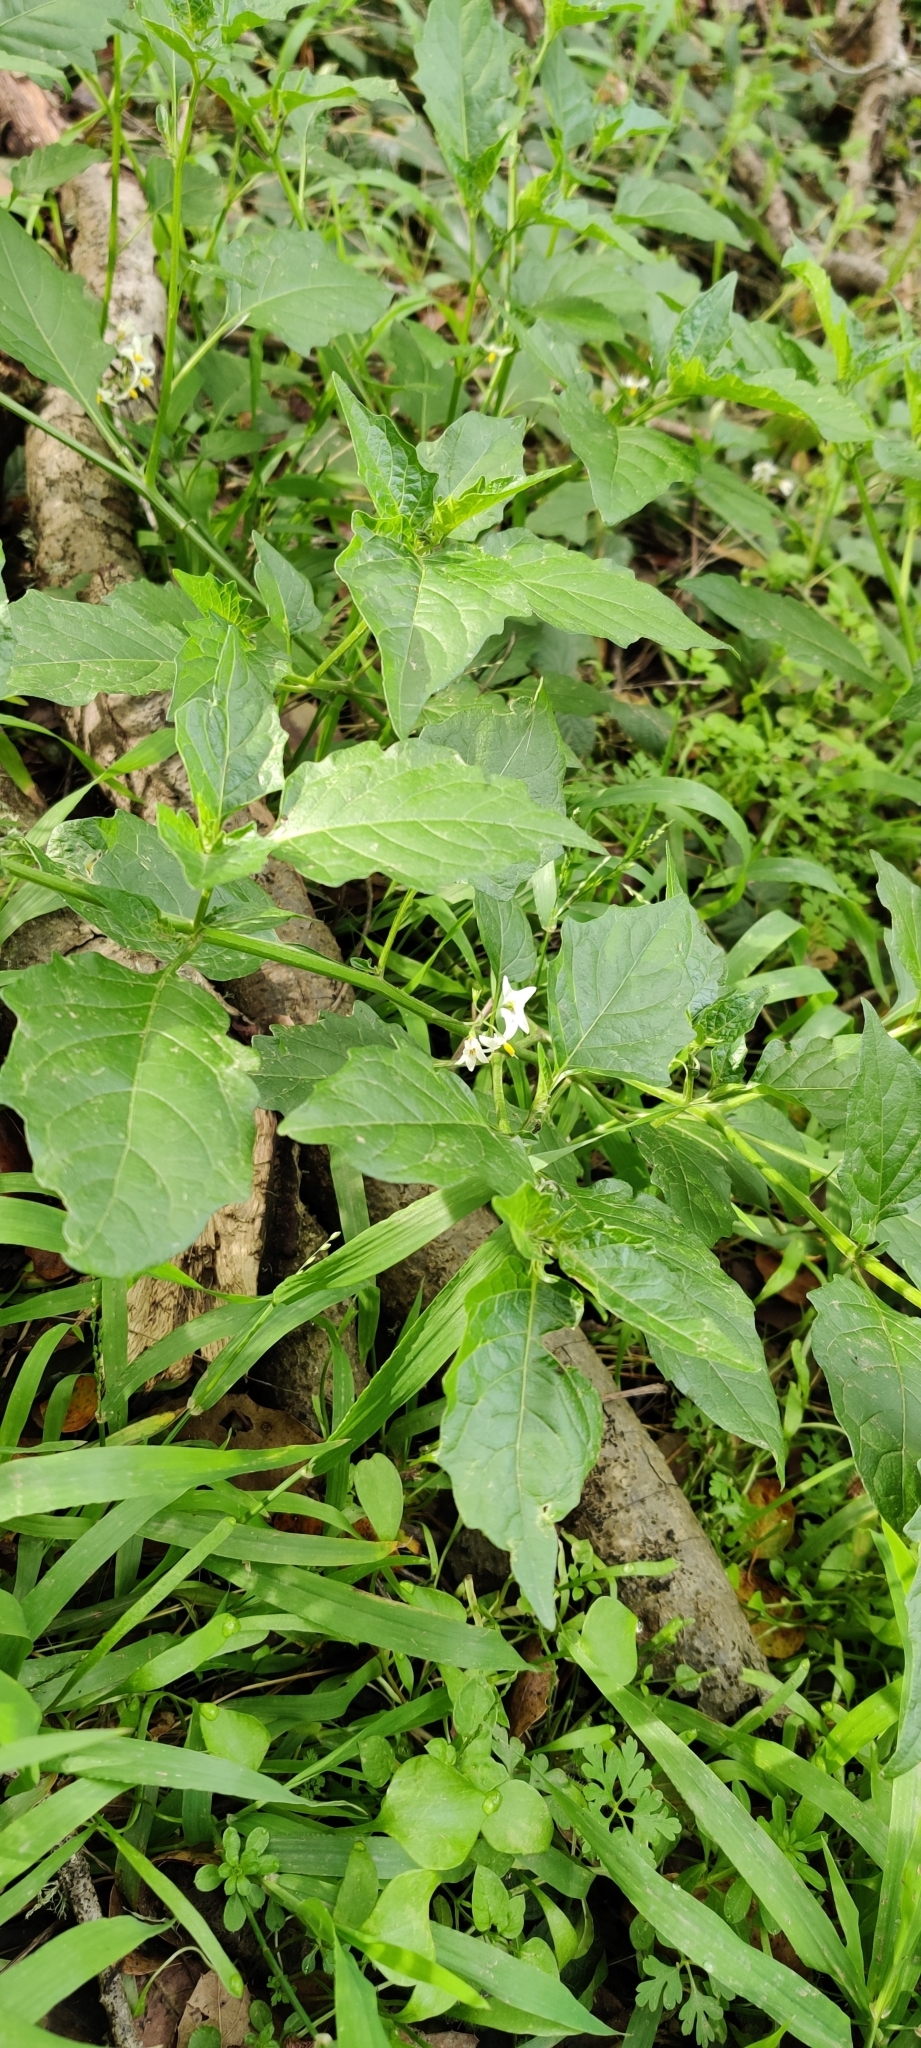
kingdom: Plantae
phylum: Tracheophyta
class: Magnoliopsida
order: Solanales
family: Solanaceae
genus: Solanum
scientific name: Solanum furcatum
